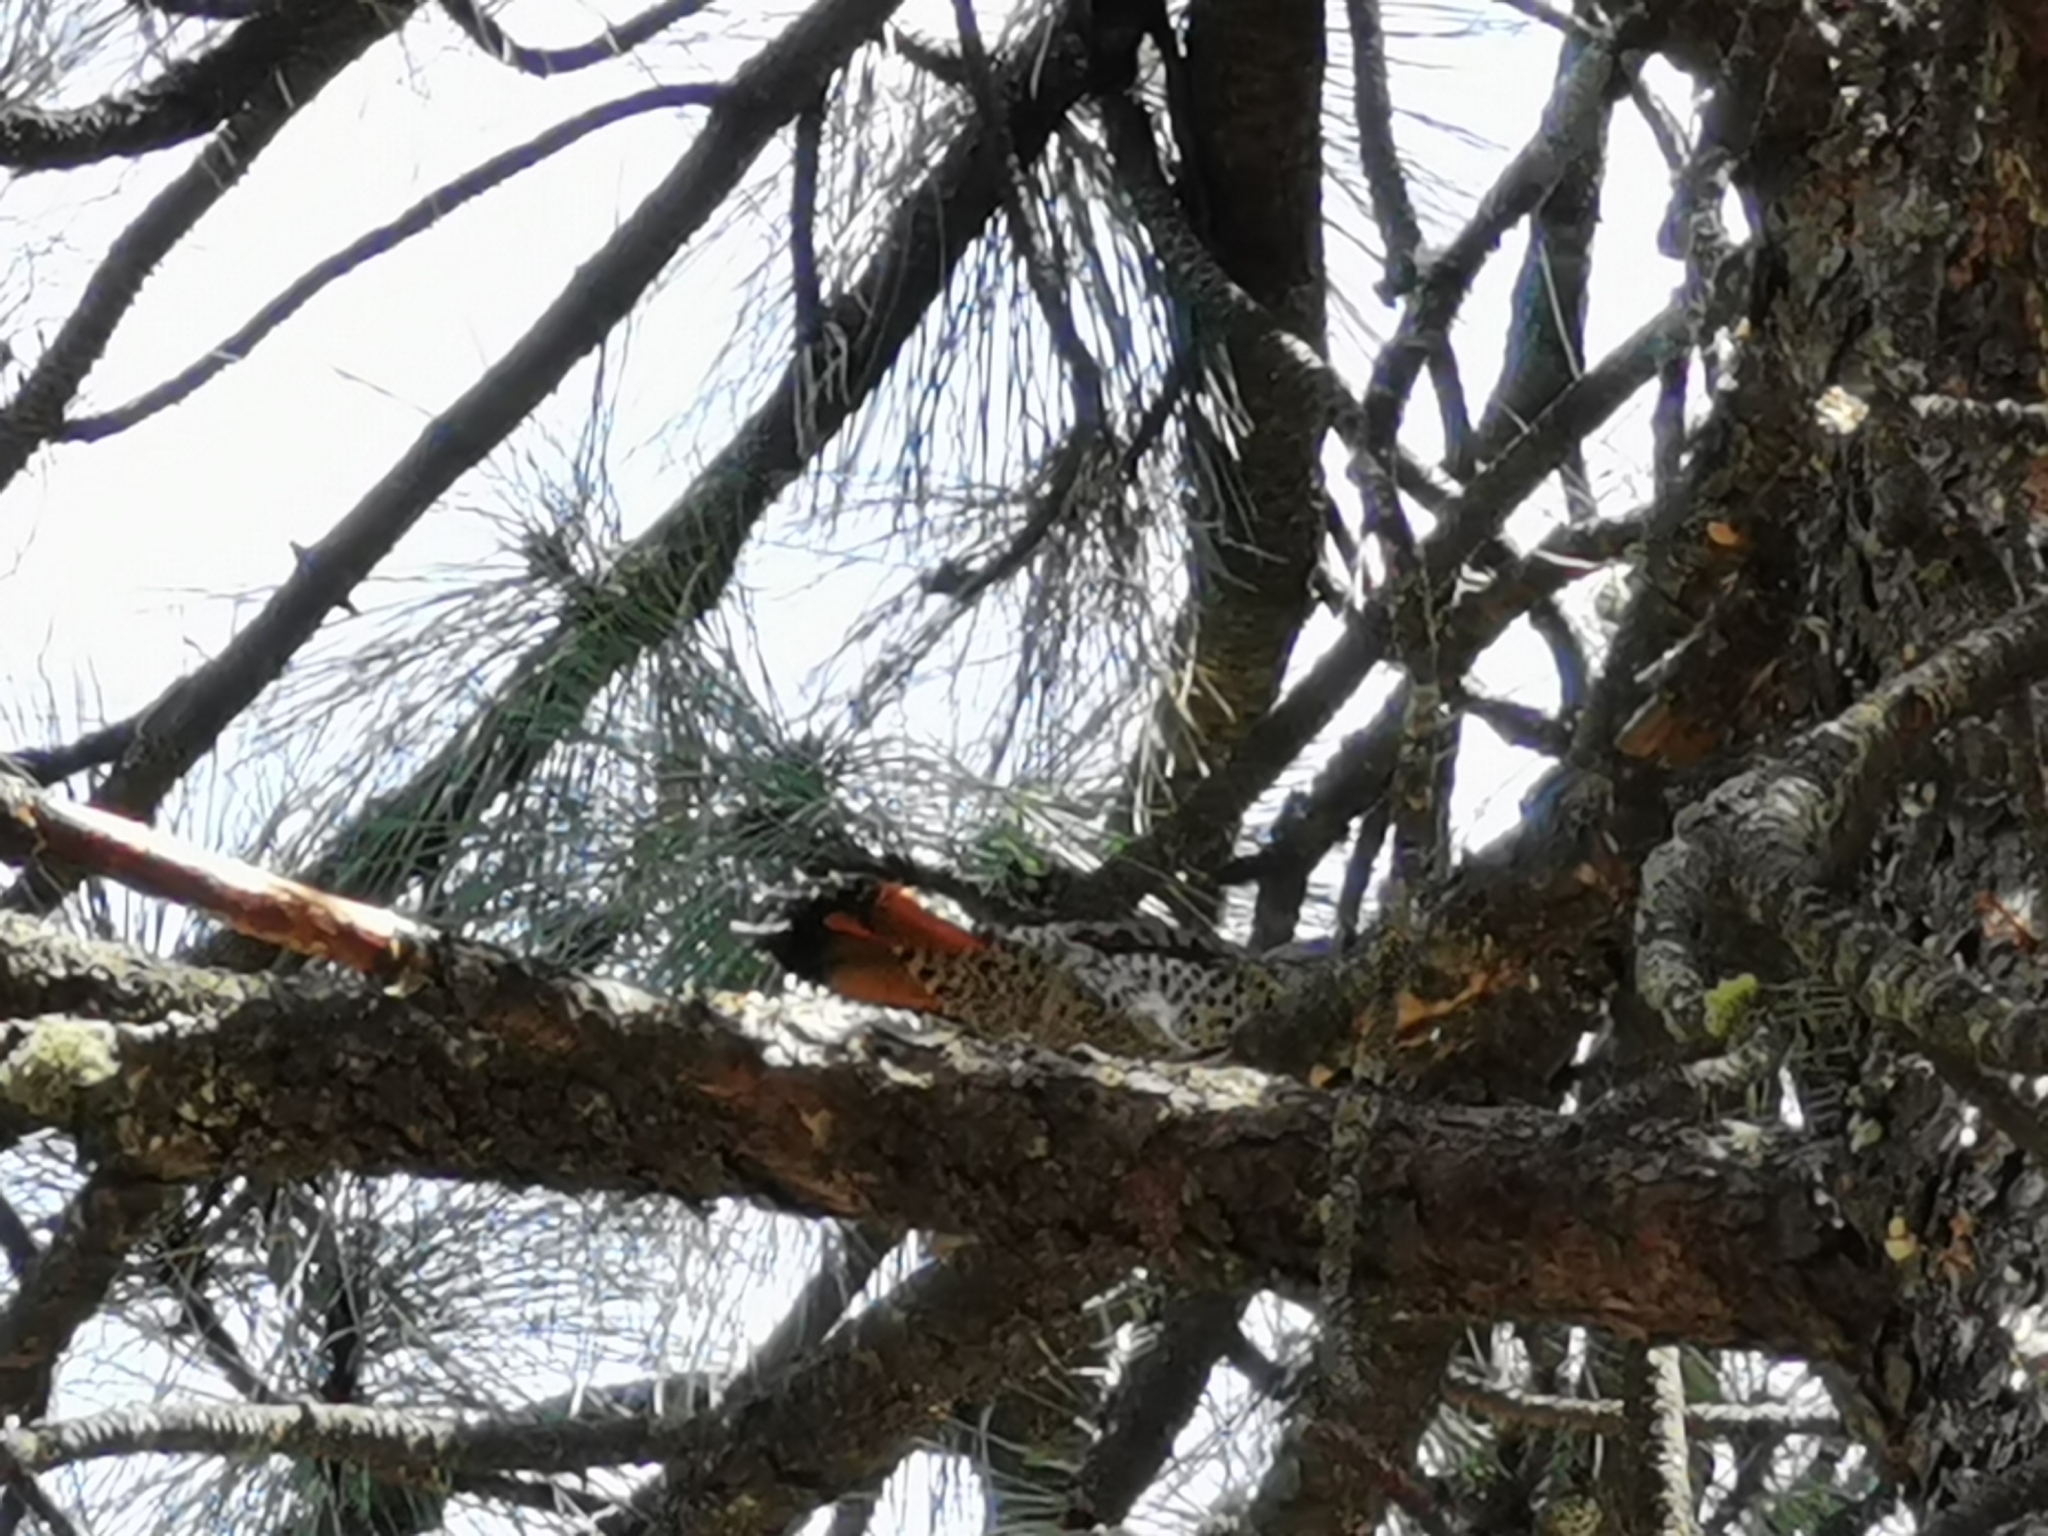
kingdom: Animalia
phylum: Chordata
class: Aves
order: Piciformes
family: Picidae
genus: Colaptes
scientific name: Colaptes auratus
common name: Northern flicker
